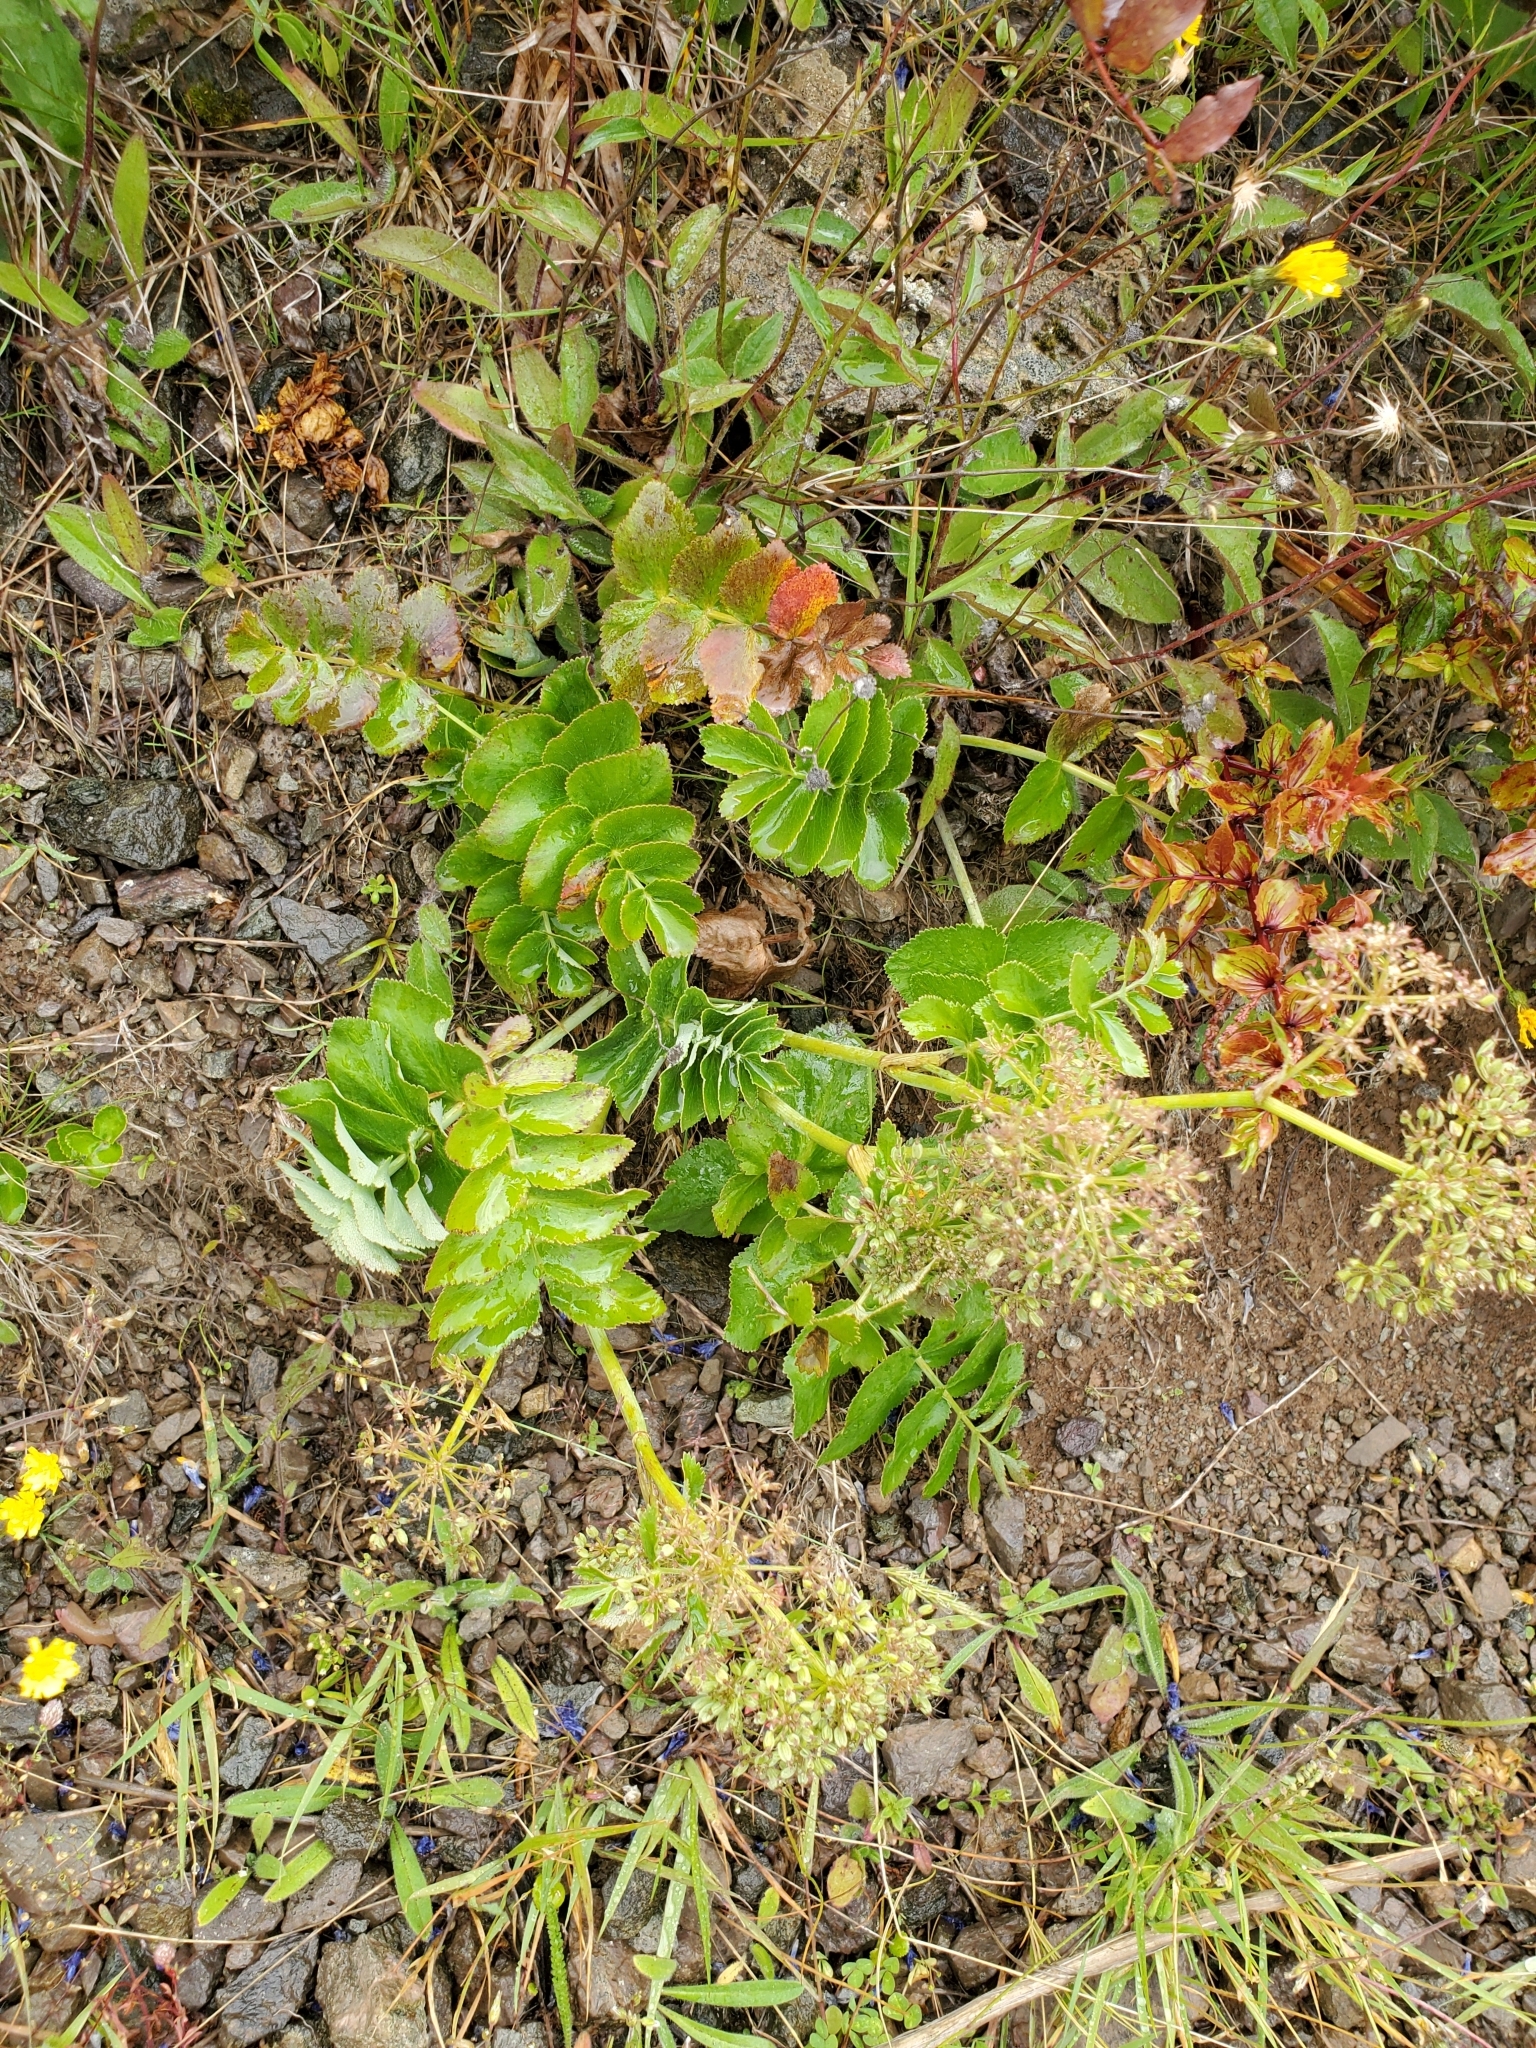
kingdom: Plantae
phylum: Tracheophyta
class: Magnoliopsida
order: Apiales
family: Apiaceae
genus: Gingidia
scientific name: Gingidia montana
